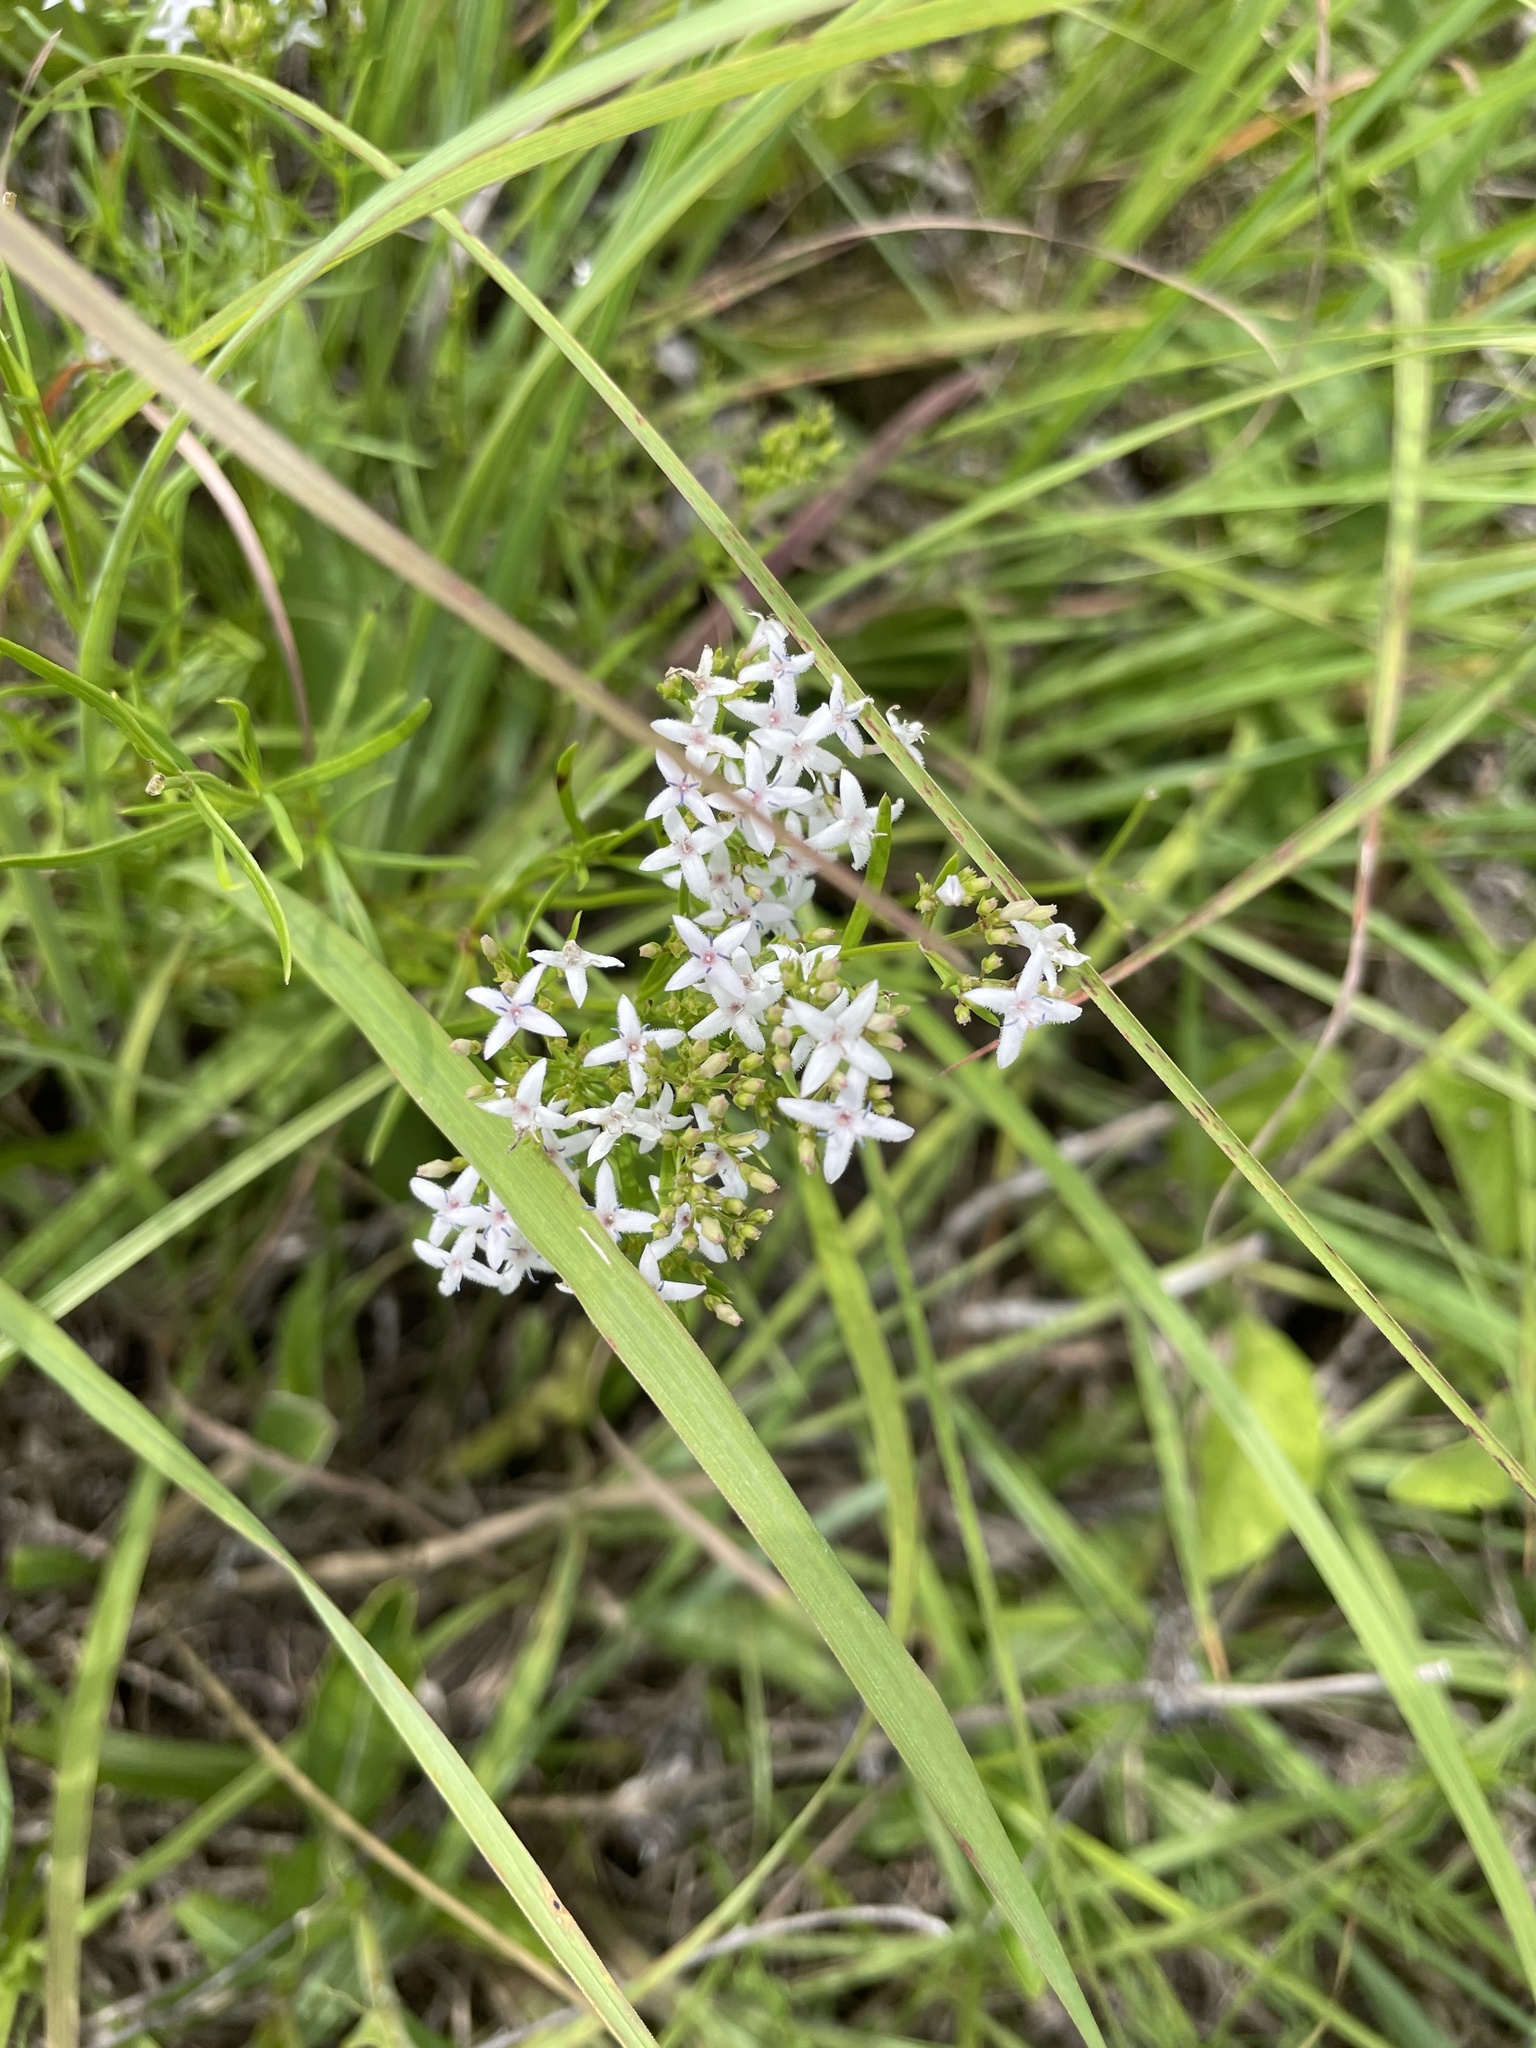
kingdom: Plantae
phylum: Tracheophyta
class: Magnoliopsida
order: Gentianales
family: Rubiaceae
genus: Stenaria
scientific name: Stenaria nigricans
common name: Diamondflowers
